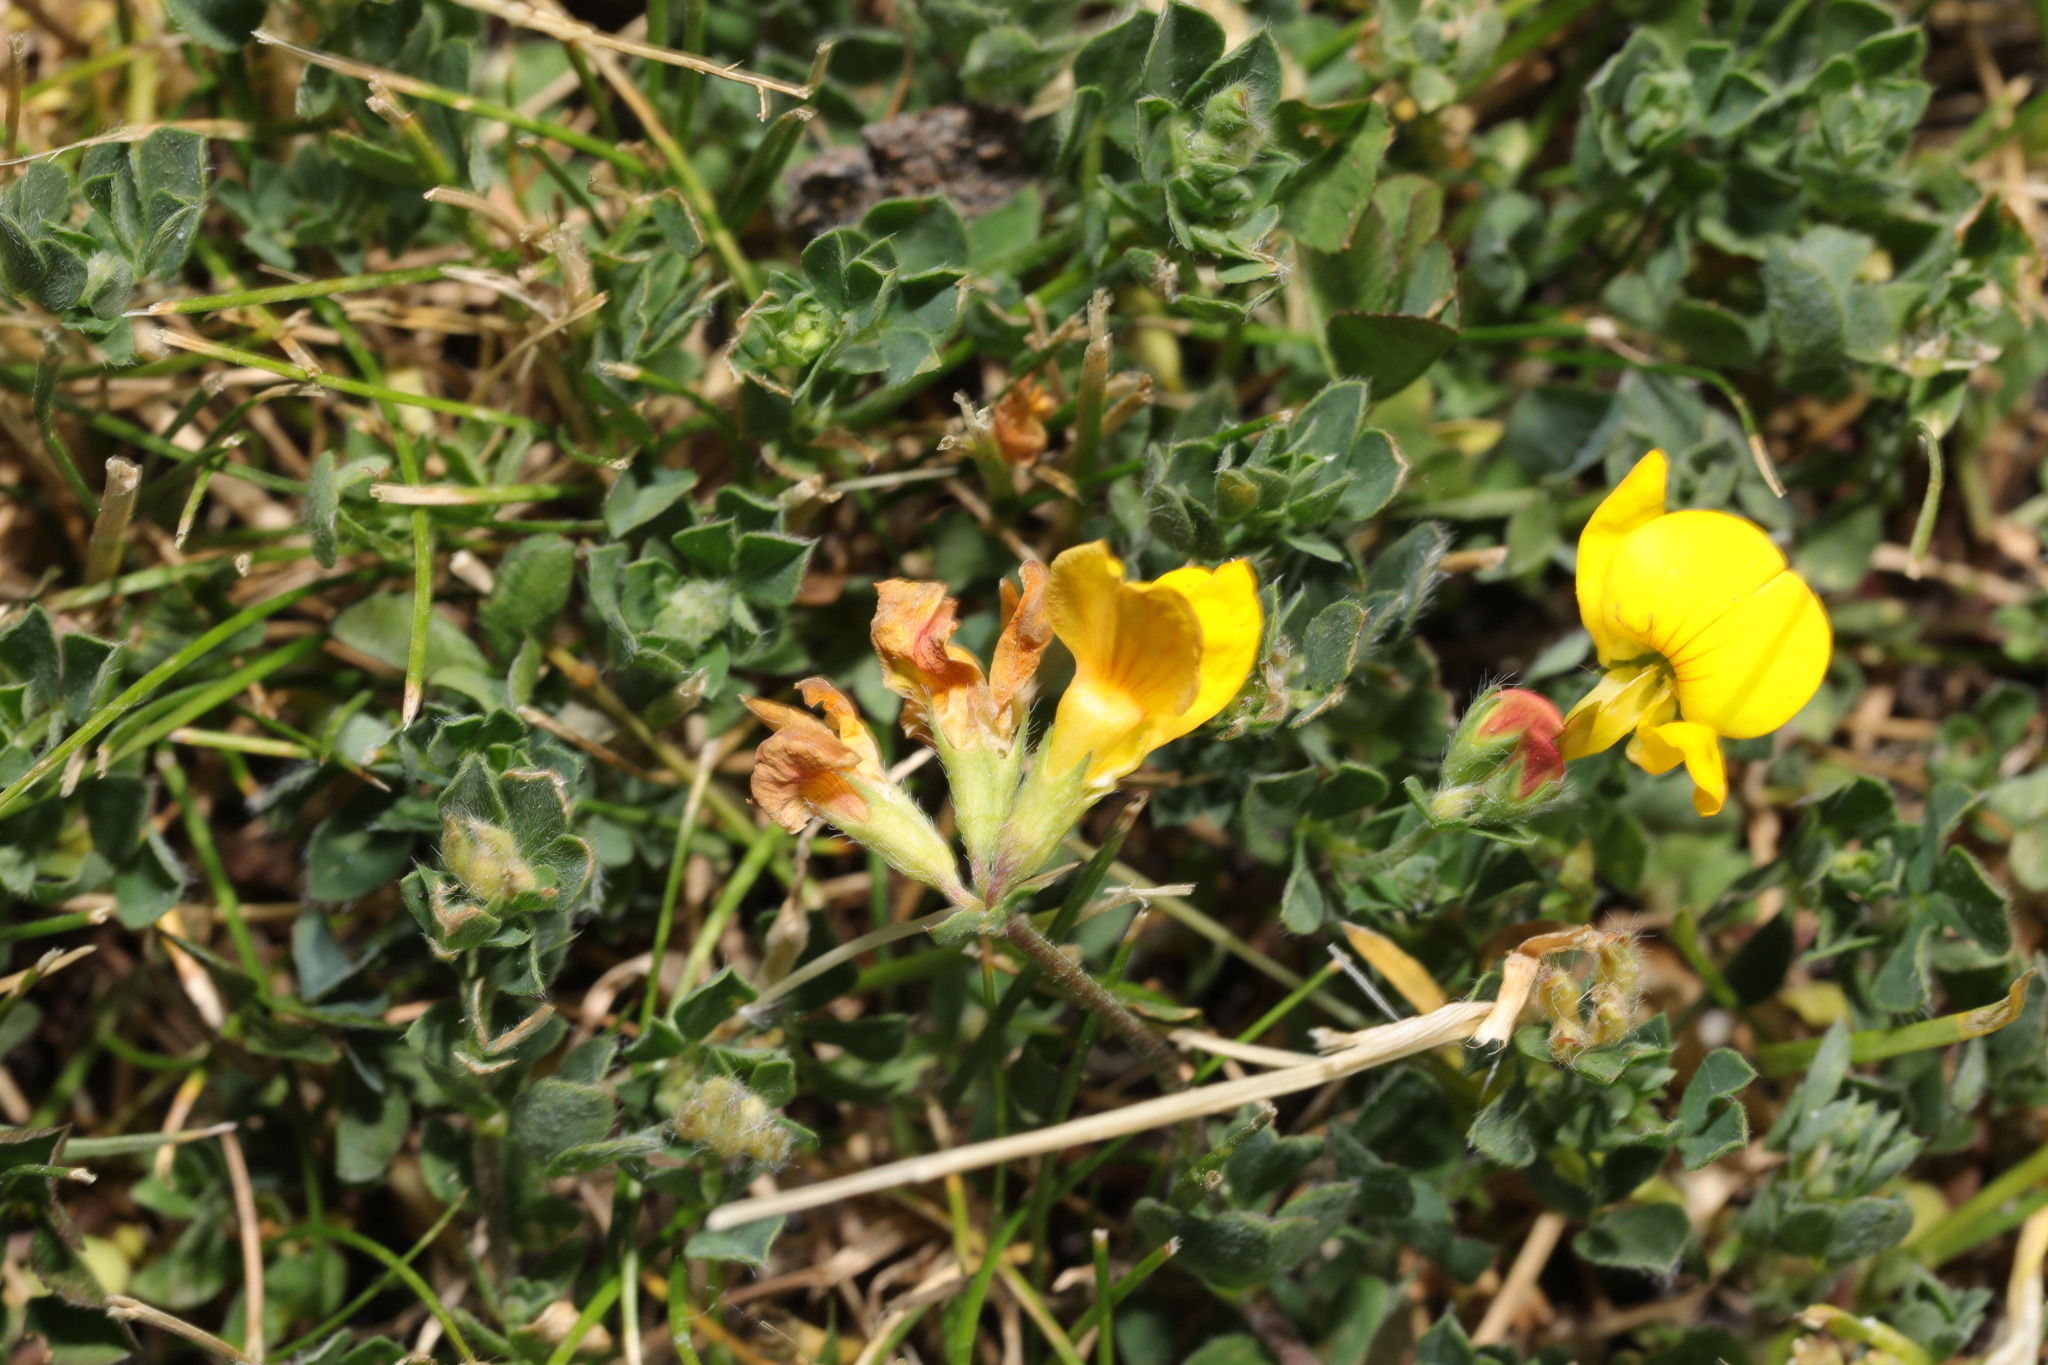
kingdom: Plantae
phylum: Tracheophyta
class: Magnoliopsida
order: Fabales
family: Fabaceae
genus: Lotus
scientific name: Lotus corniculatus
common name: Common bird's-foot-trefoil
